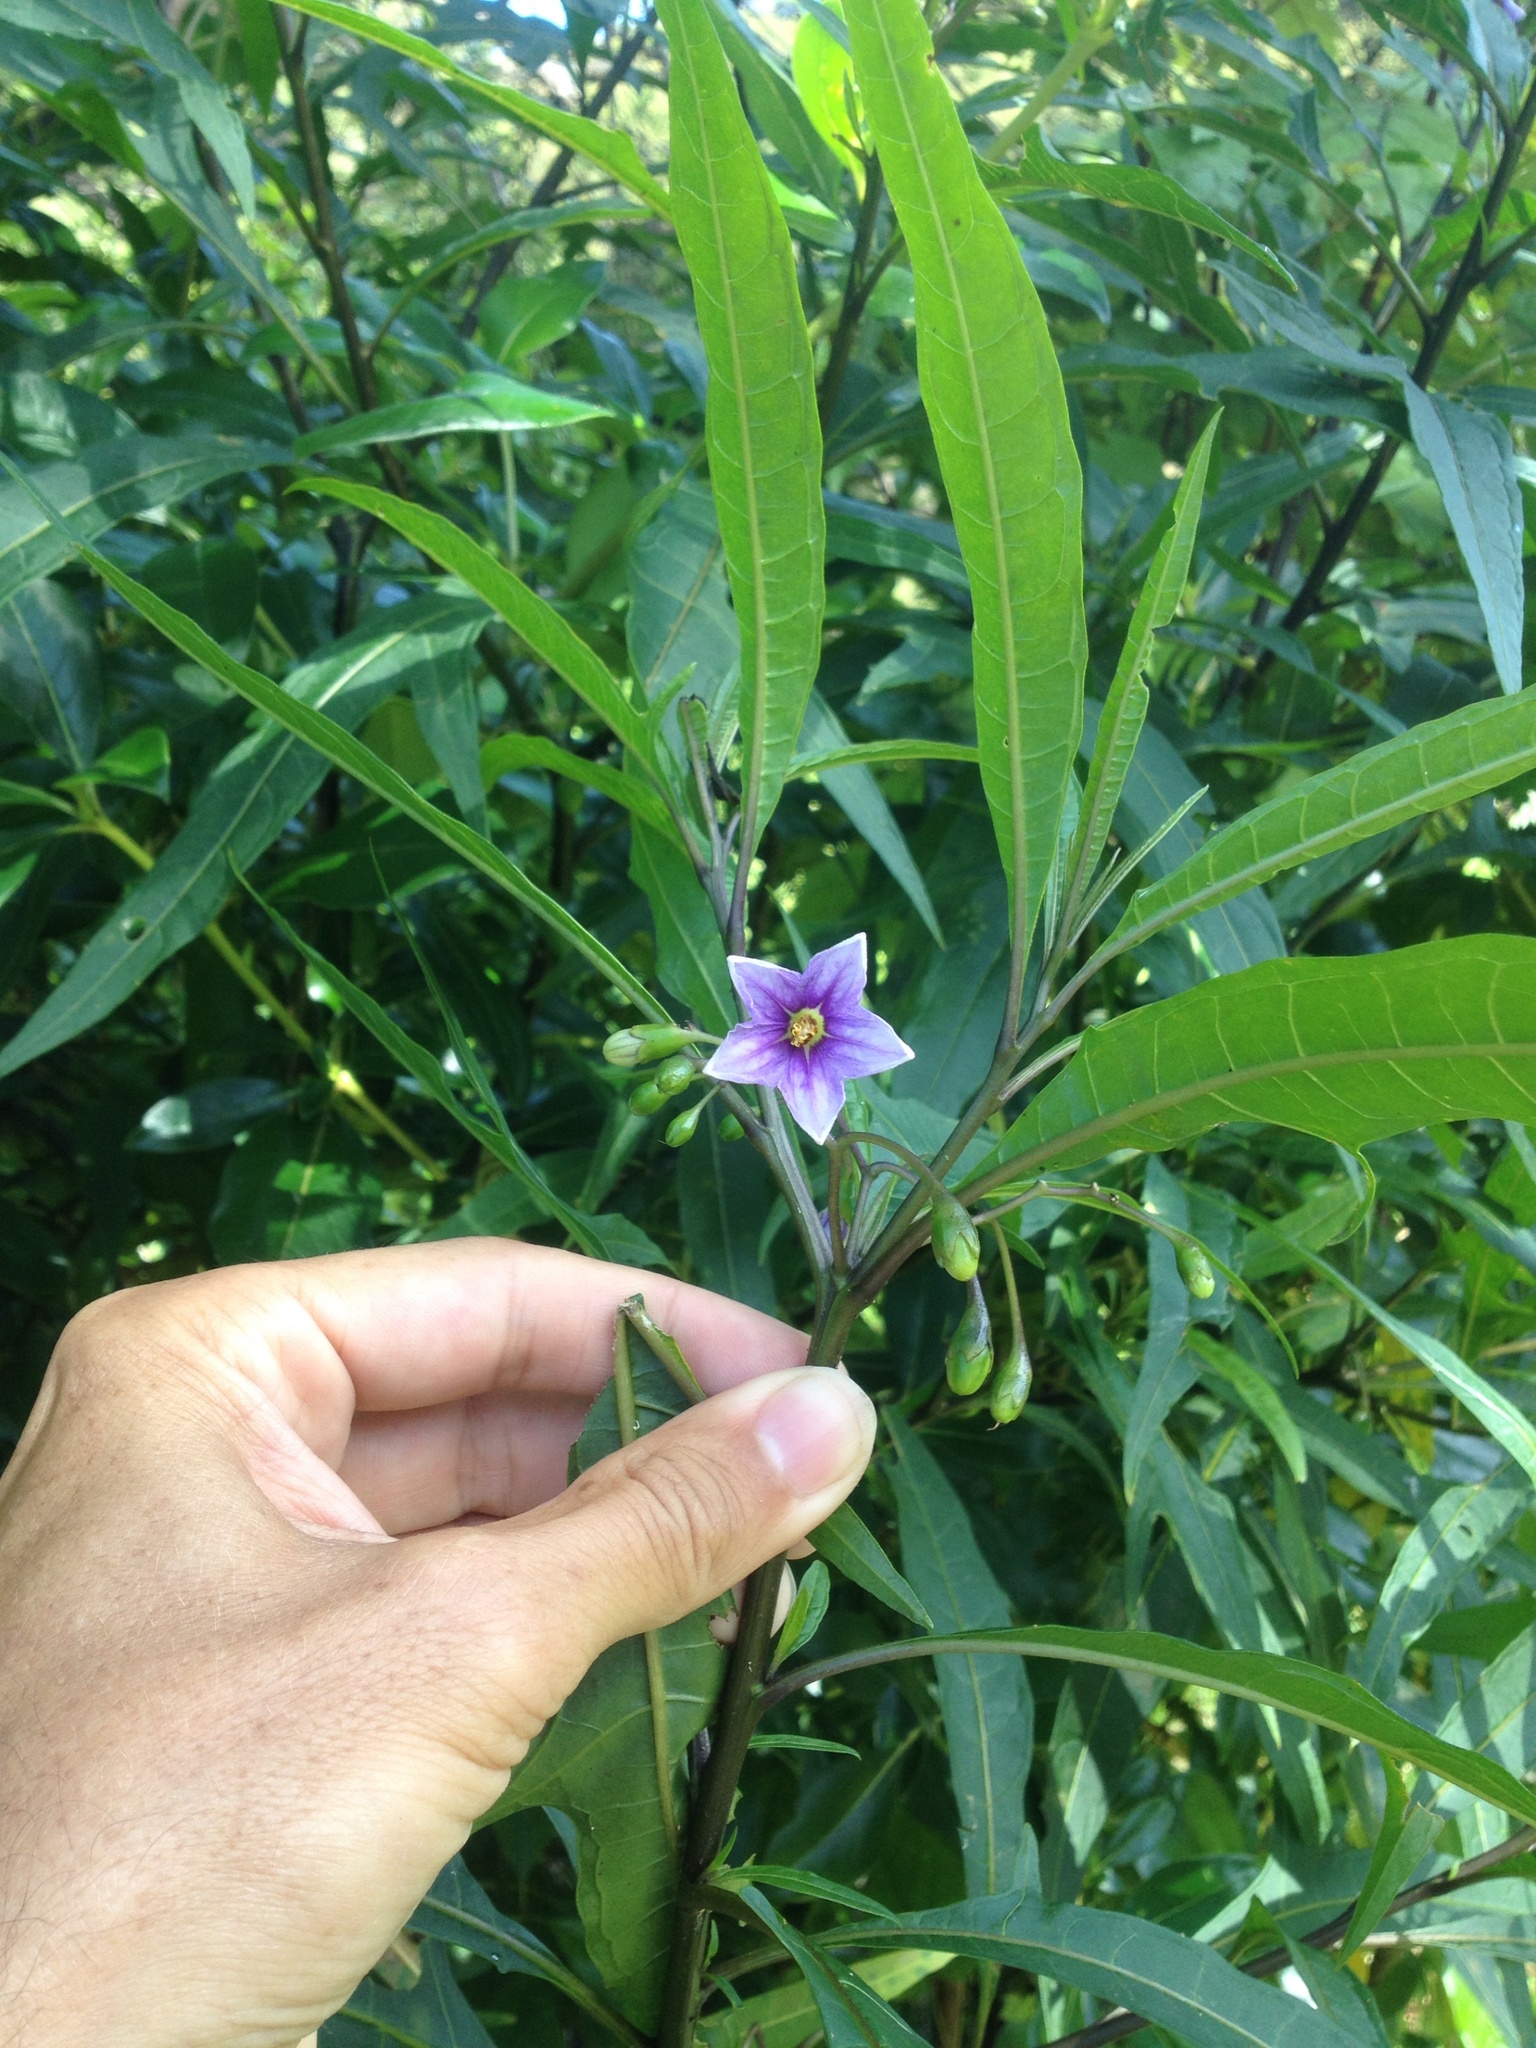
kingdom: Plantae
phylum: Tracheophyta
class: Magnoliopsida
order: Solanales
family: Solanaceae
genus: Solanum
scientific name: Solanum aviculare
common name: New zealand nightshade
